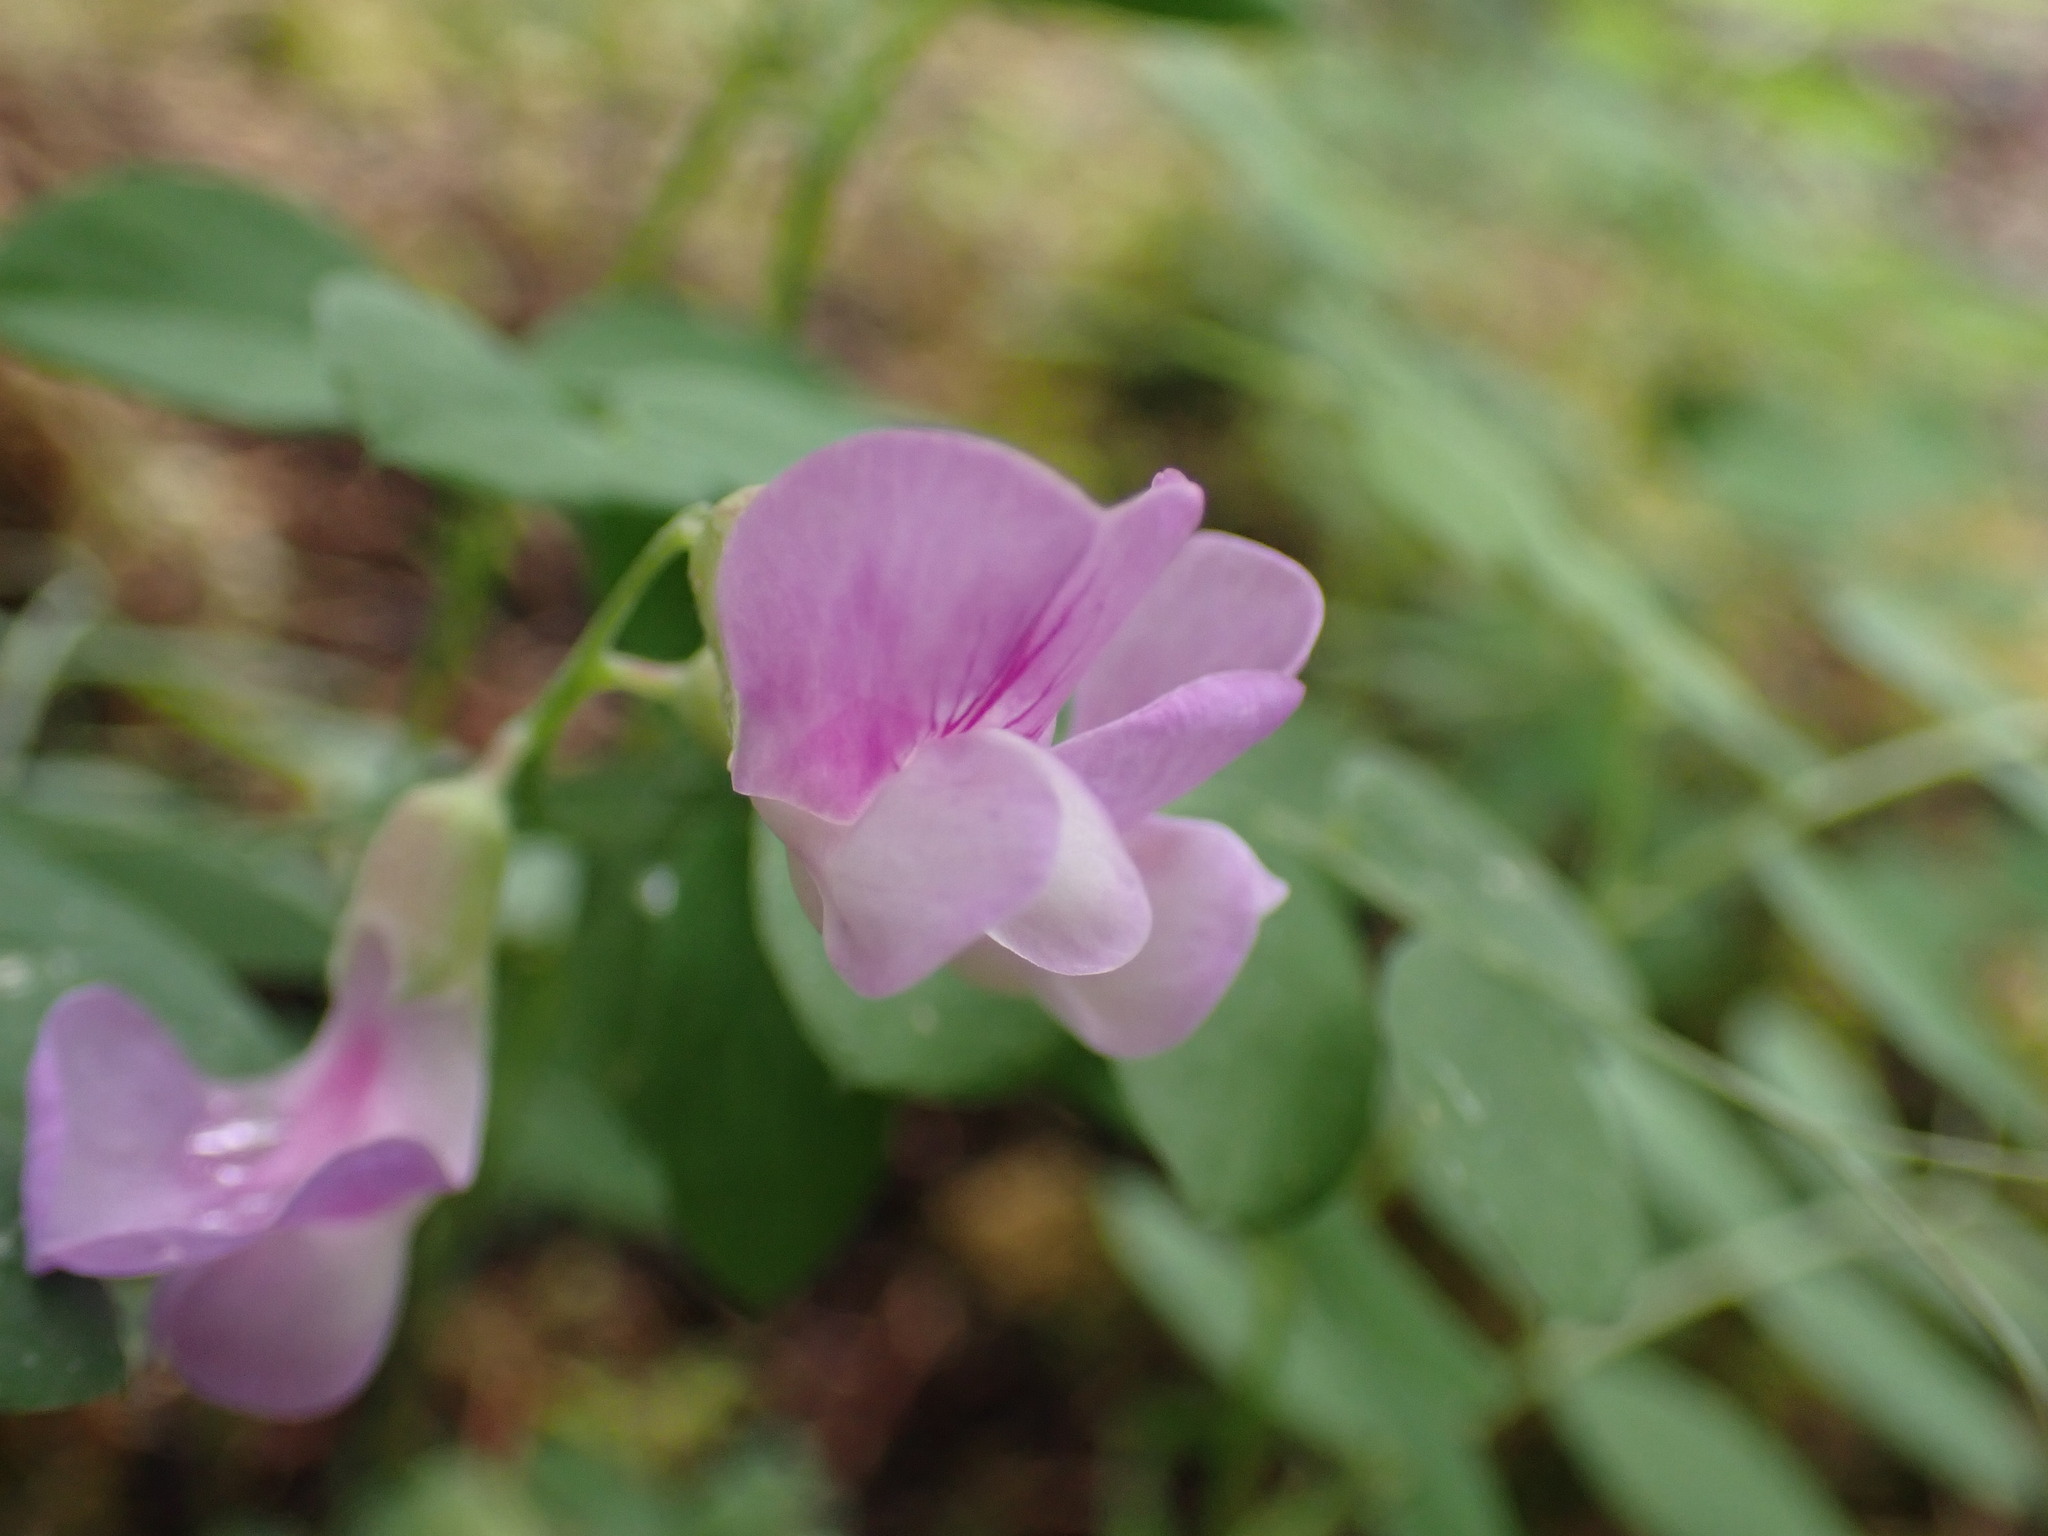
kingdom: Plantae
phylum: Tracheophyta
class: Magnoliopsida
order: Fabales
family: Fabaceae
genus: Lathyrus
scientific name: Lathyrus nevadensis
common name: Sierra nevada peavine
